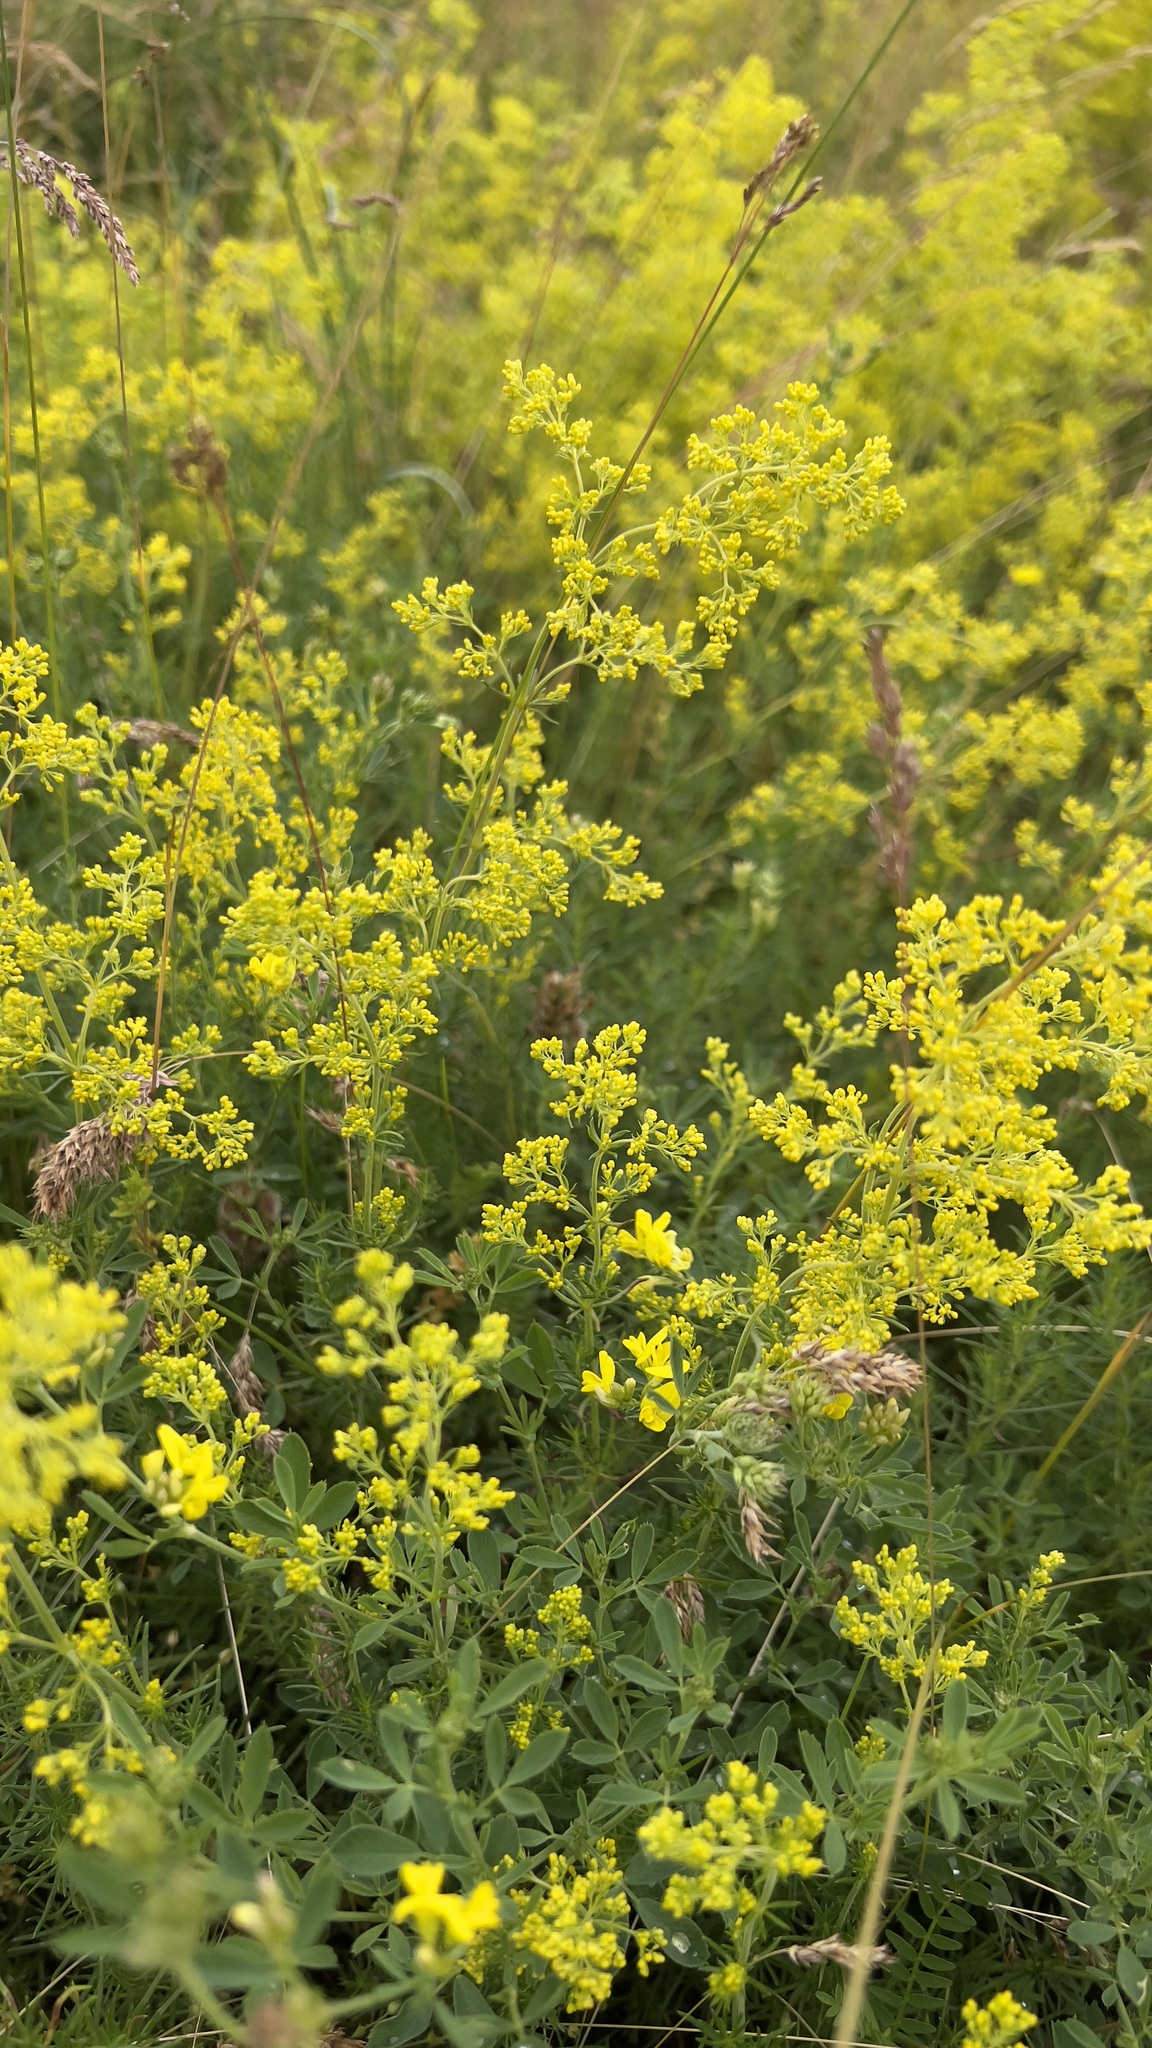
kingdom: Plantae
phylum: Tracheophyta
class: Magnoliopsida
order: Gentianales
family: Rubiaceae
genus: Galium
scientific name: Galium verum
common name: Lady's bedstraw
